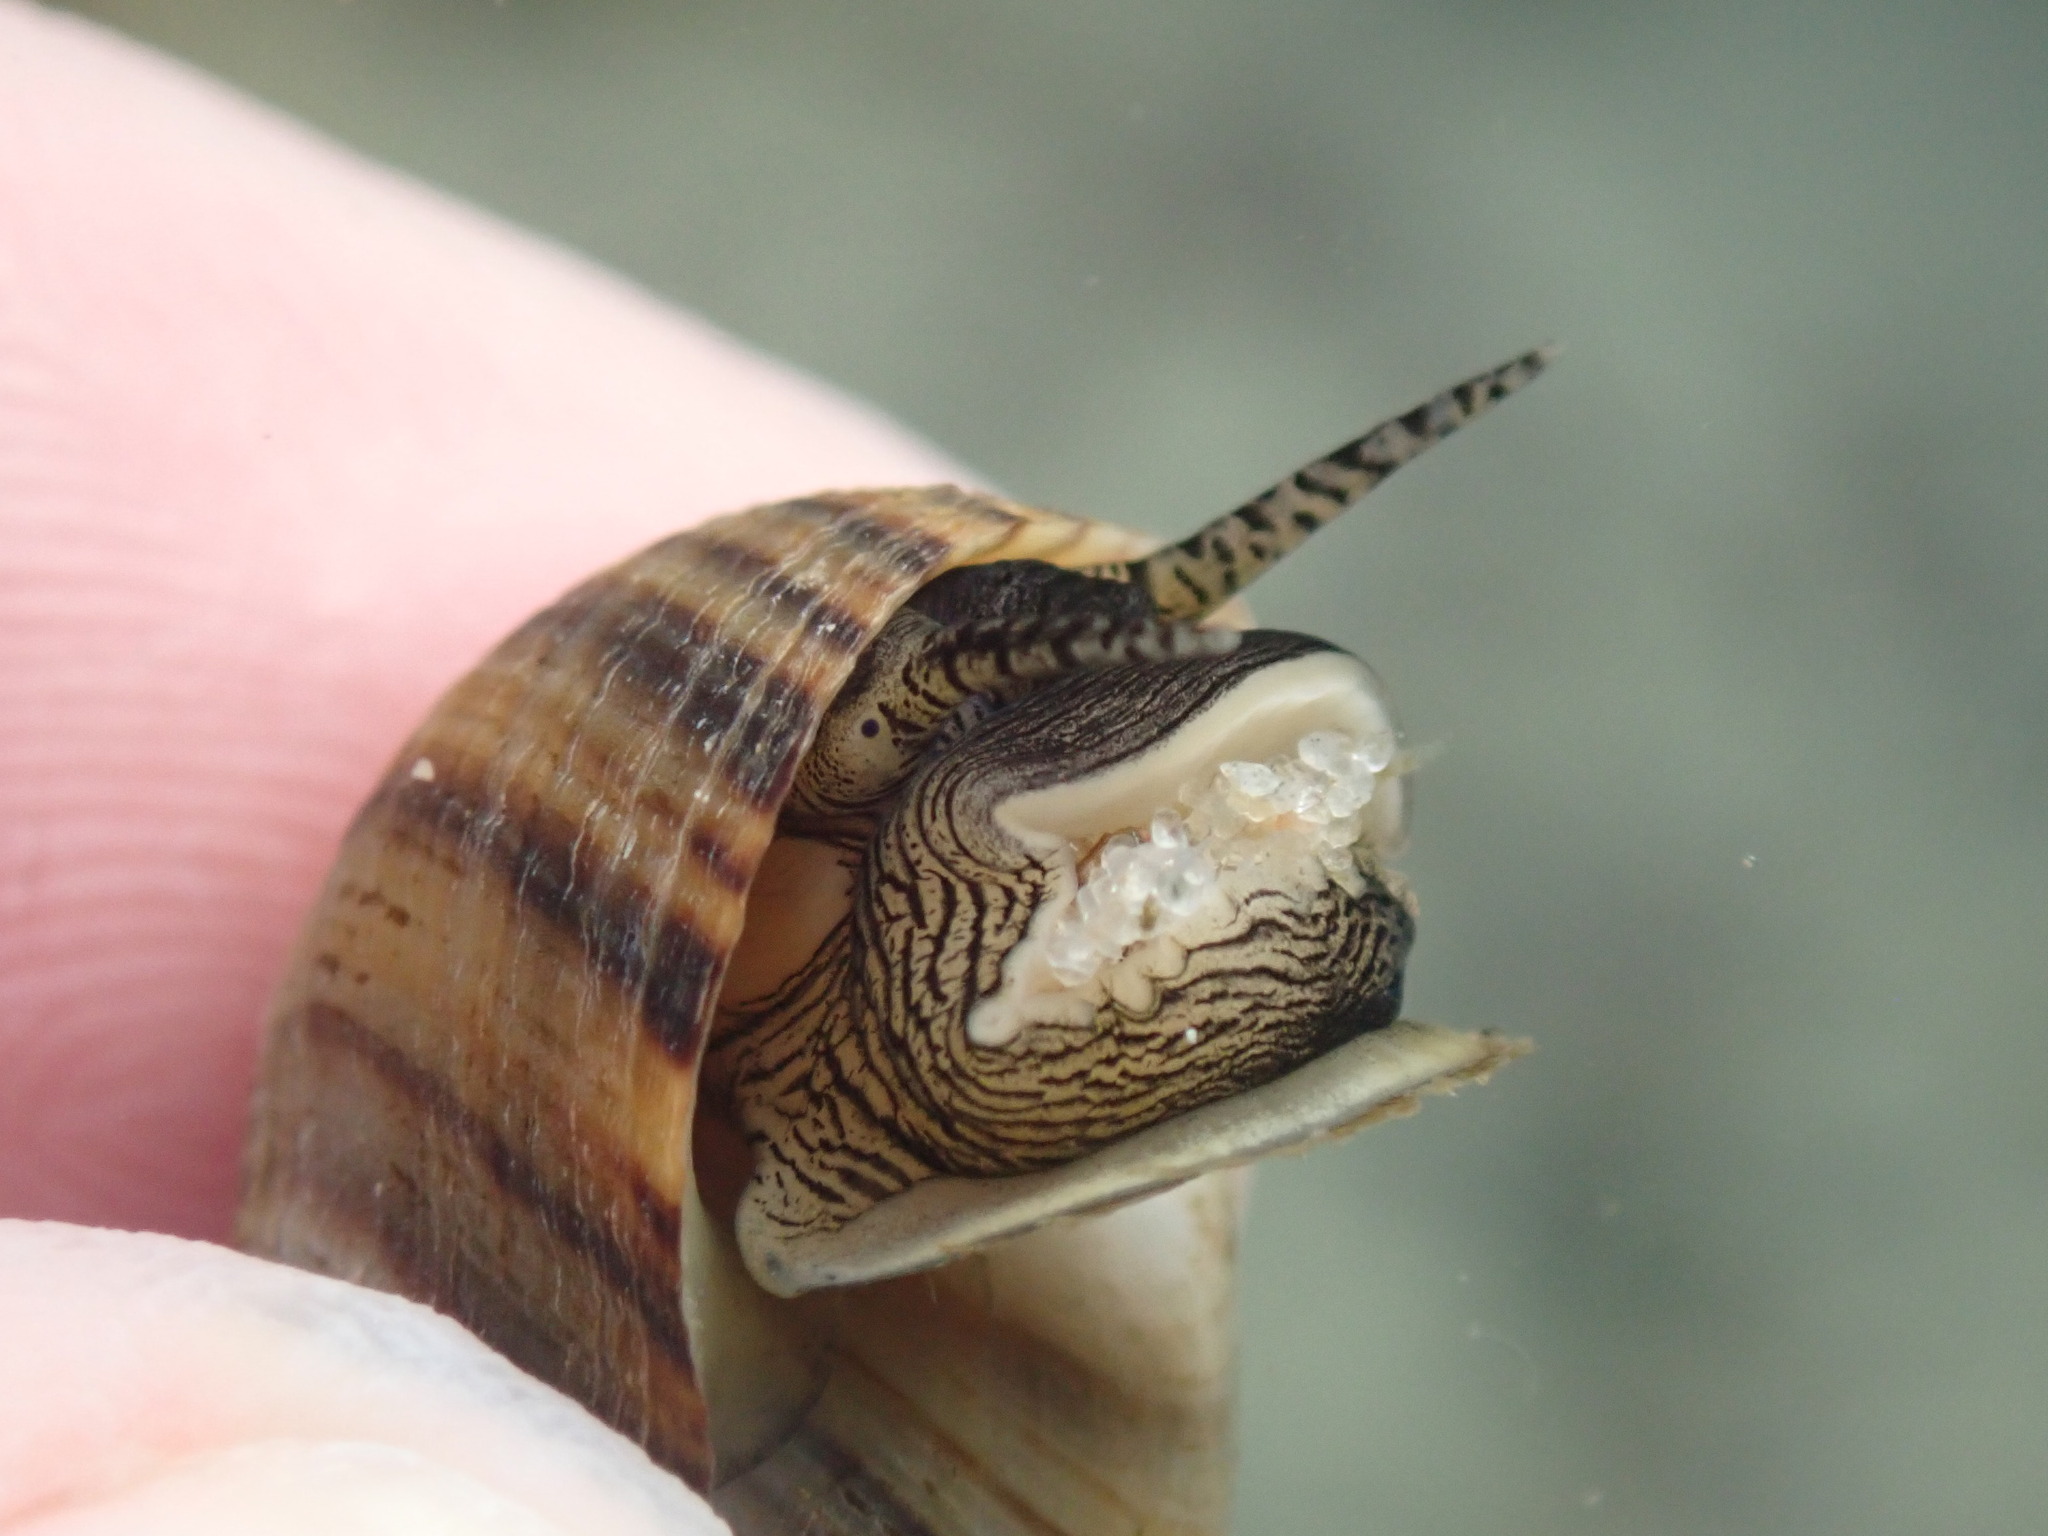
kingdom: Animalia
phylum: Mollusca
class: Gastropoda
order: Littorinimorpha
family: Littorinidae
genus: Littorina
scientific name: Littorina littorea
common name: Common periwinkle
